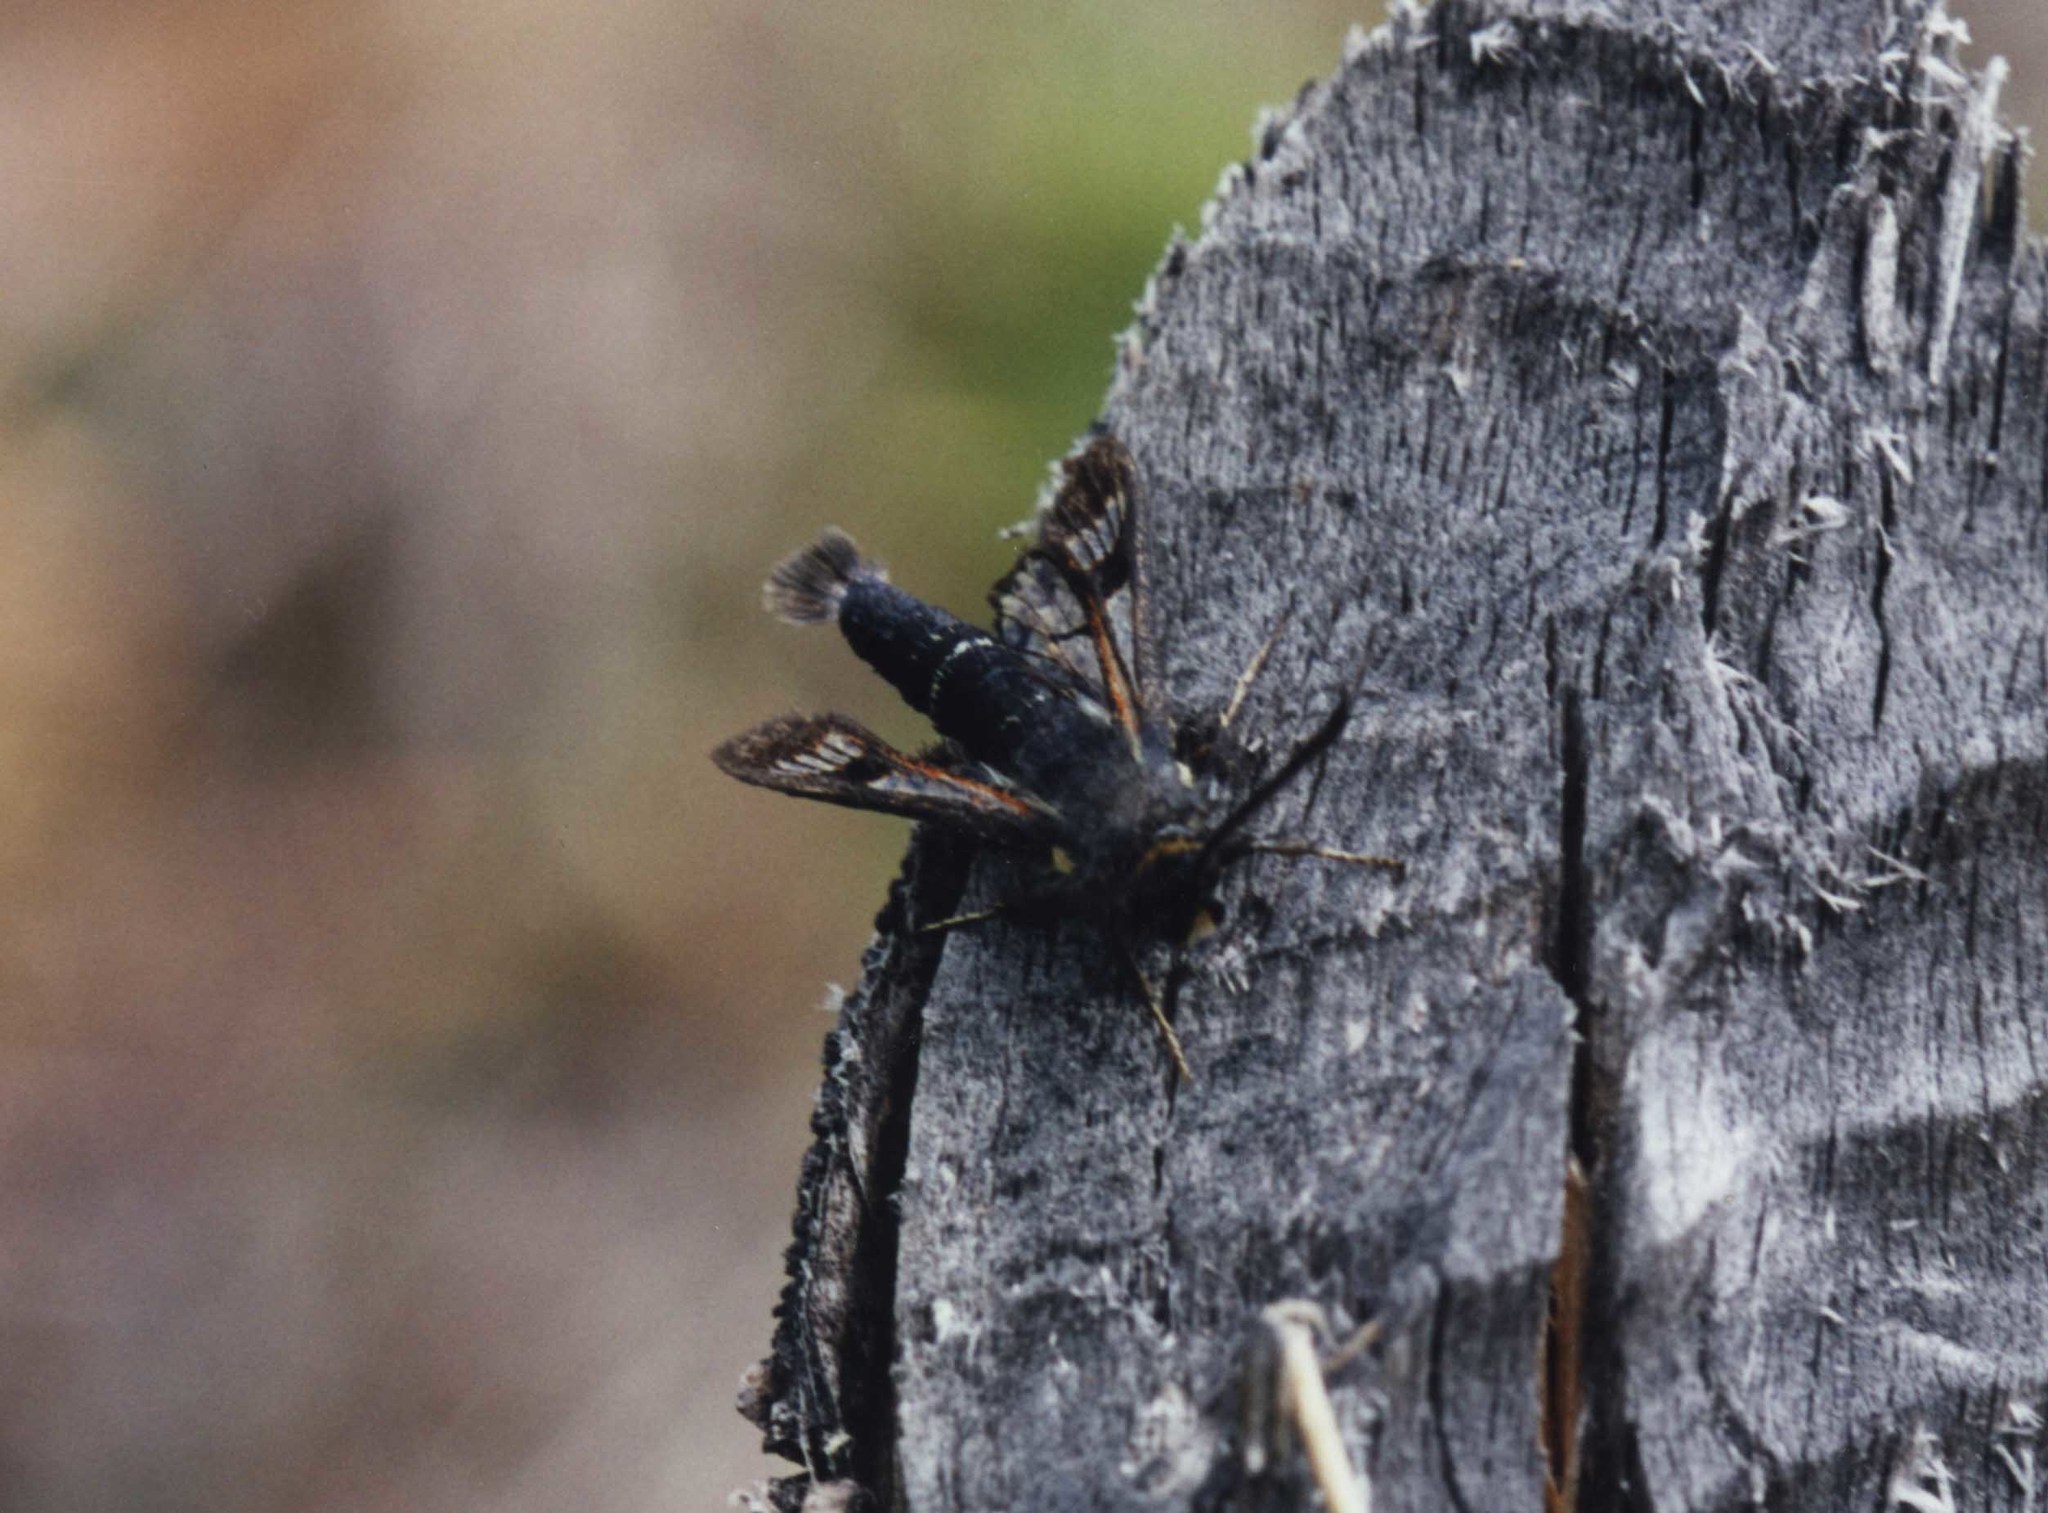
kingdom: Animalia
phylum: Arthropoda
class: Insecta
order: Lepidoptera
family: Sesiidae
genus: Albuna
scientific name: Albuna pyramidalis
